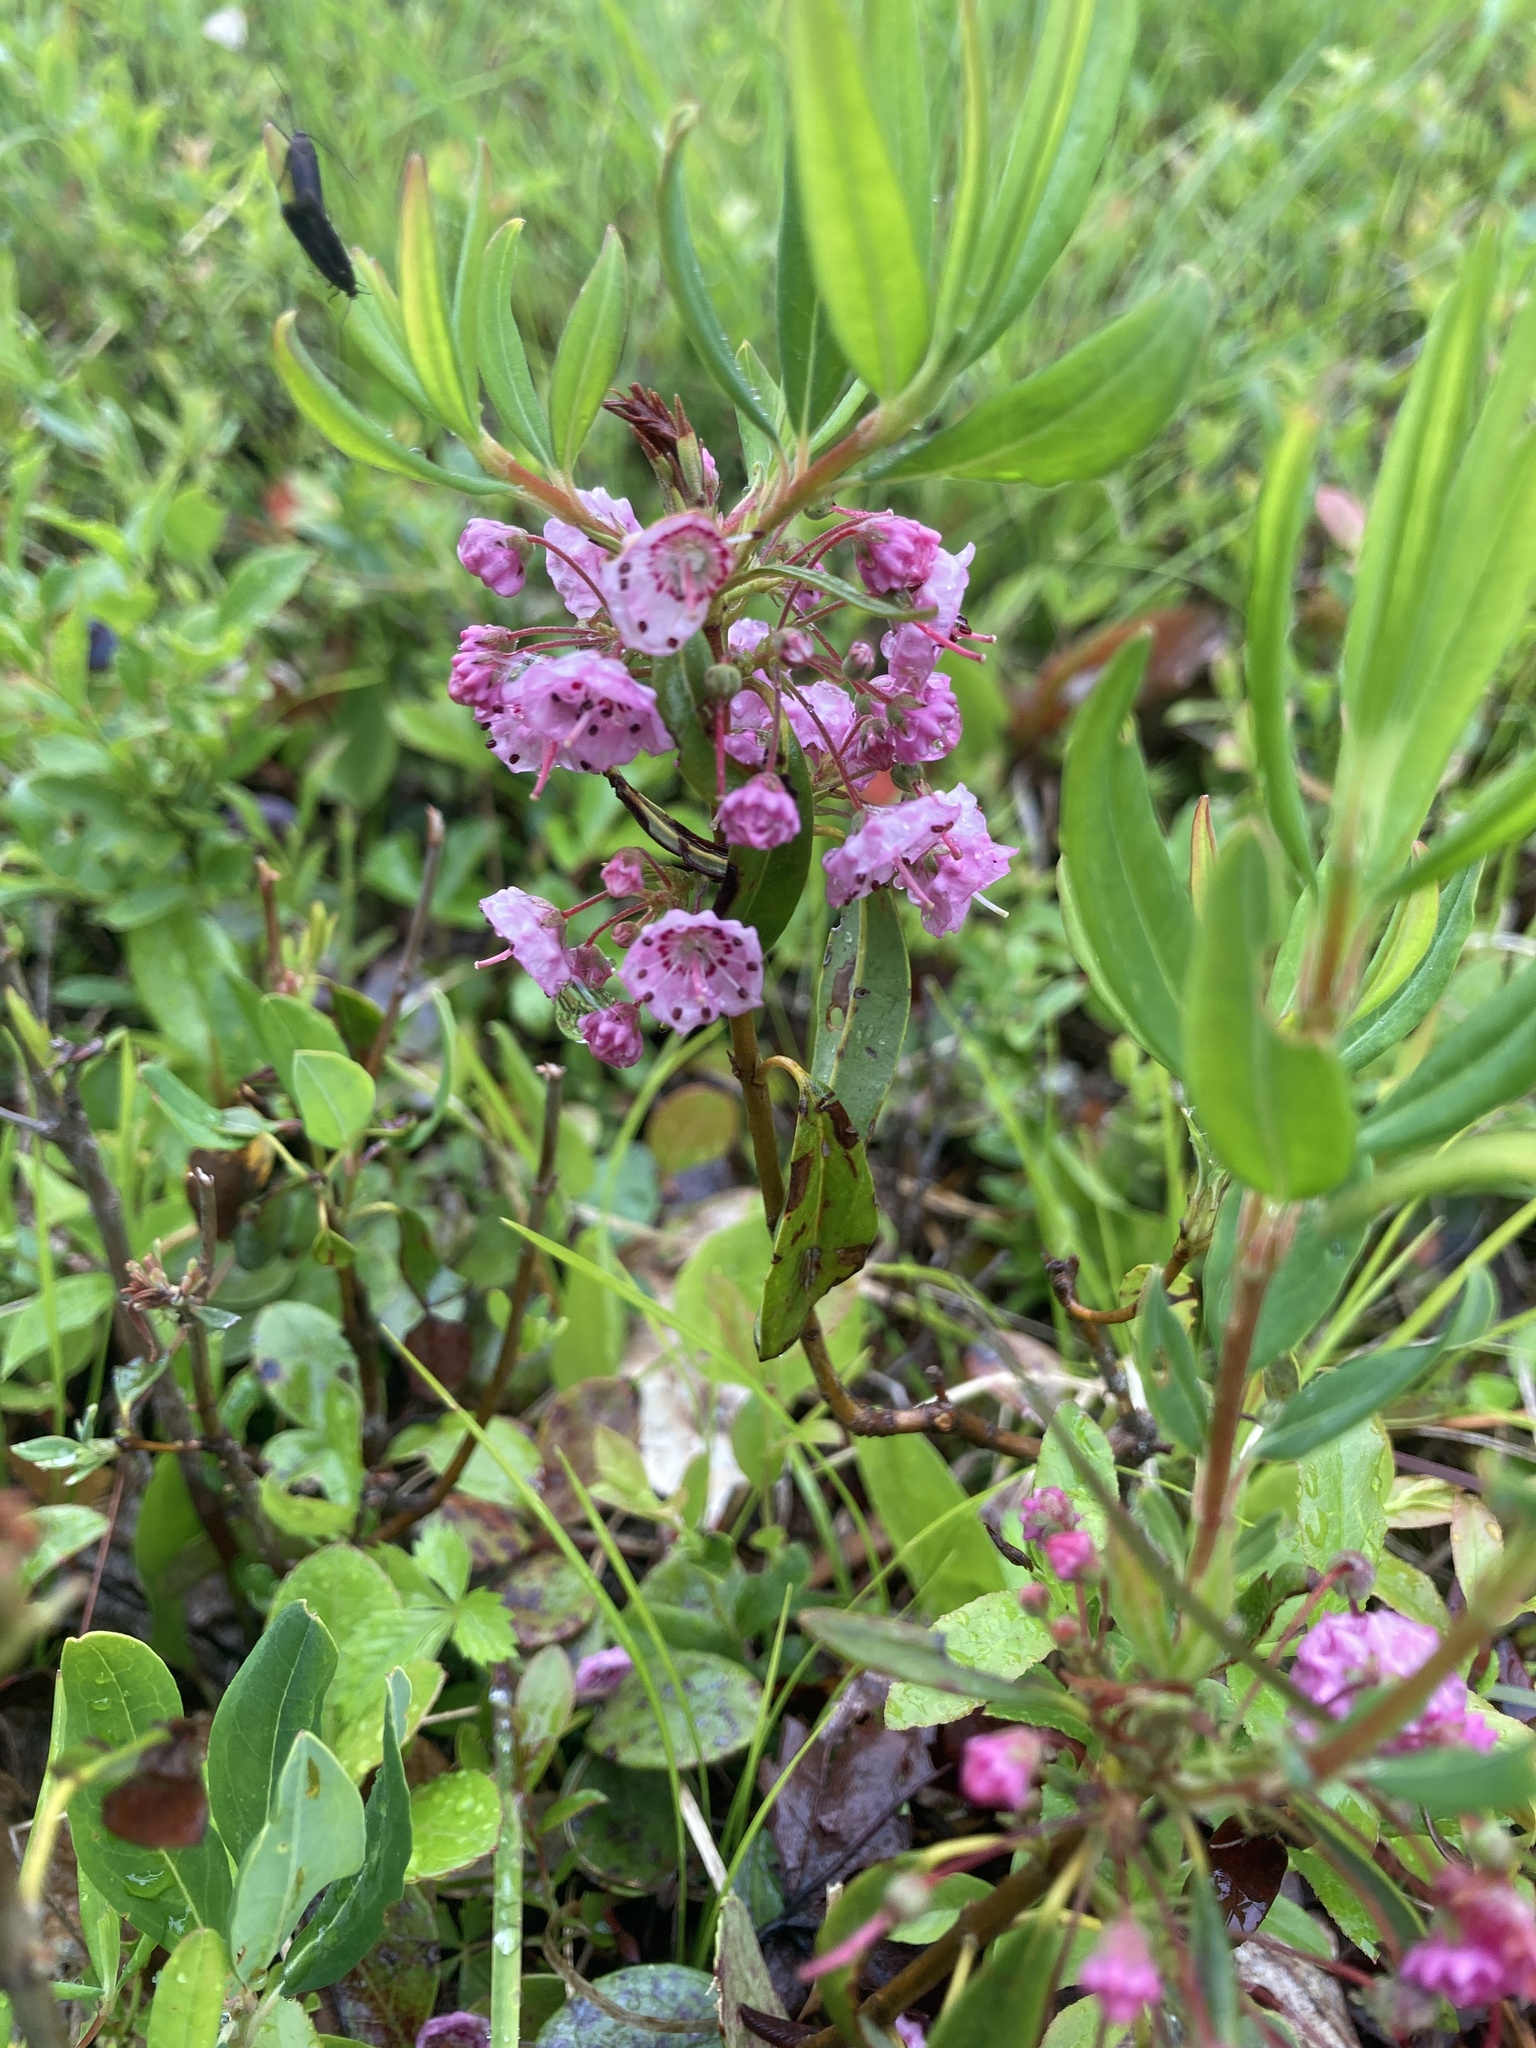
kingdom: Plantae
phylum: Tracheophyta
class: Magnoliopsida
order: Ericales
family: Ericaceae
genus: Kalmia
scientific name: Kalmia angustifolia
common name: Sheep-laurel
